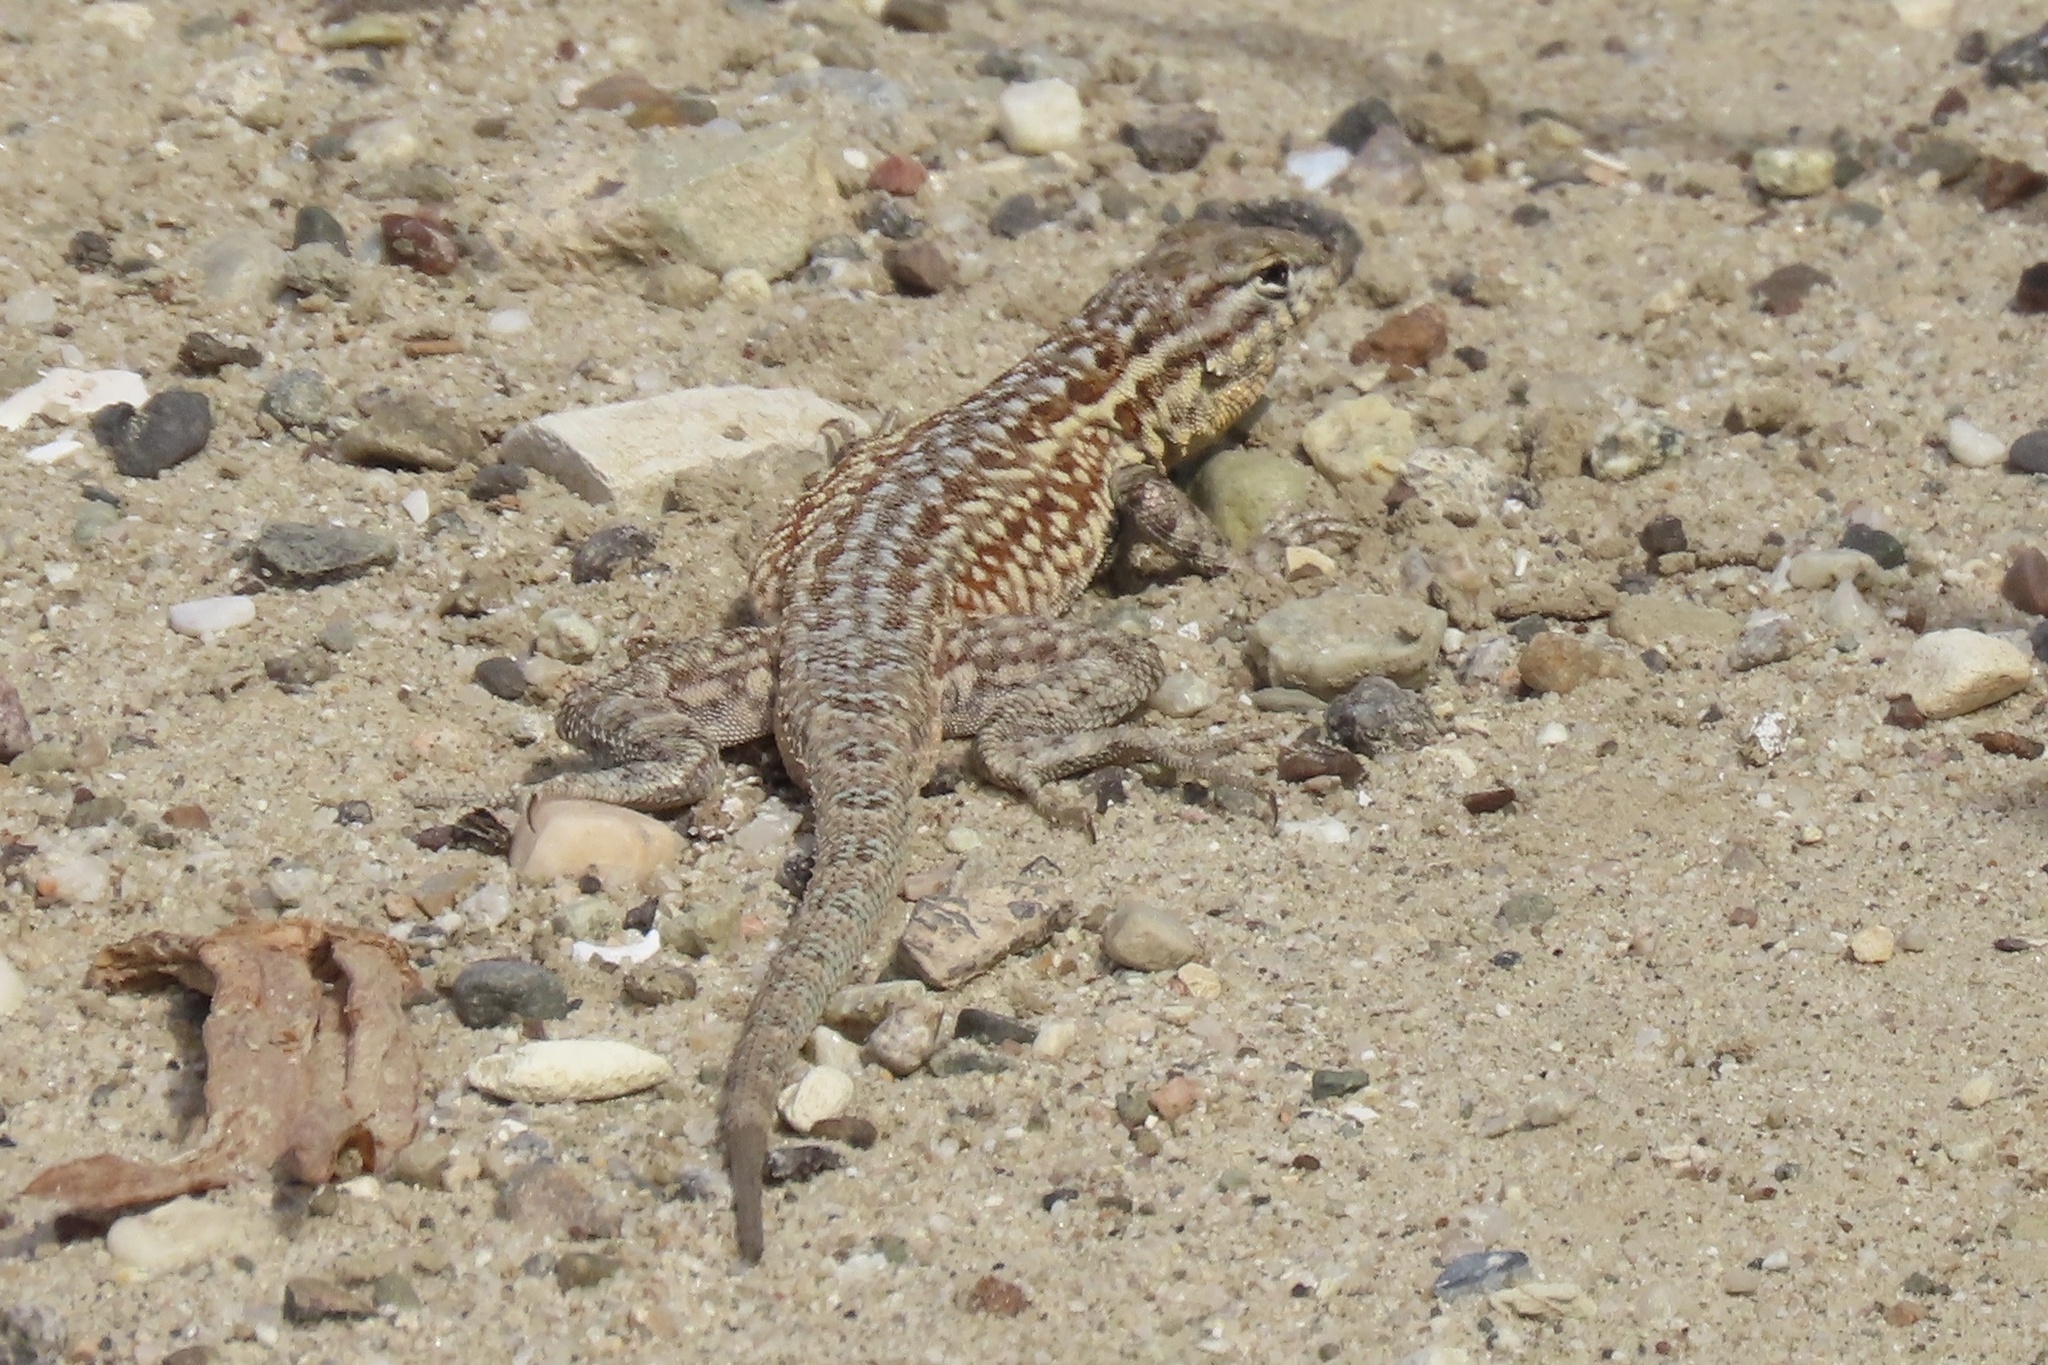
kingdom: Animalia
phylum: Chordata
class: Squamata
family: Phrynosomatidae
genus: Uta
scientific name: Uta stansburiana
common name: Side-blotched lizard
